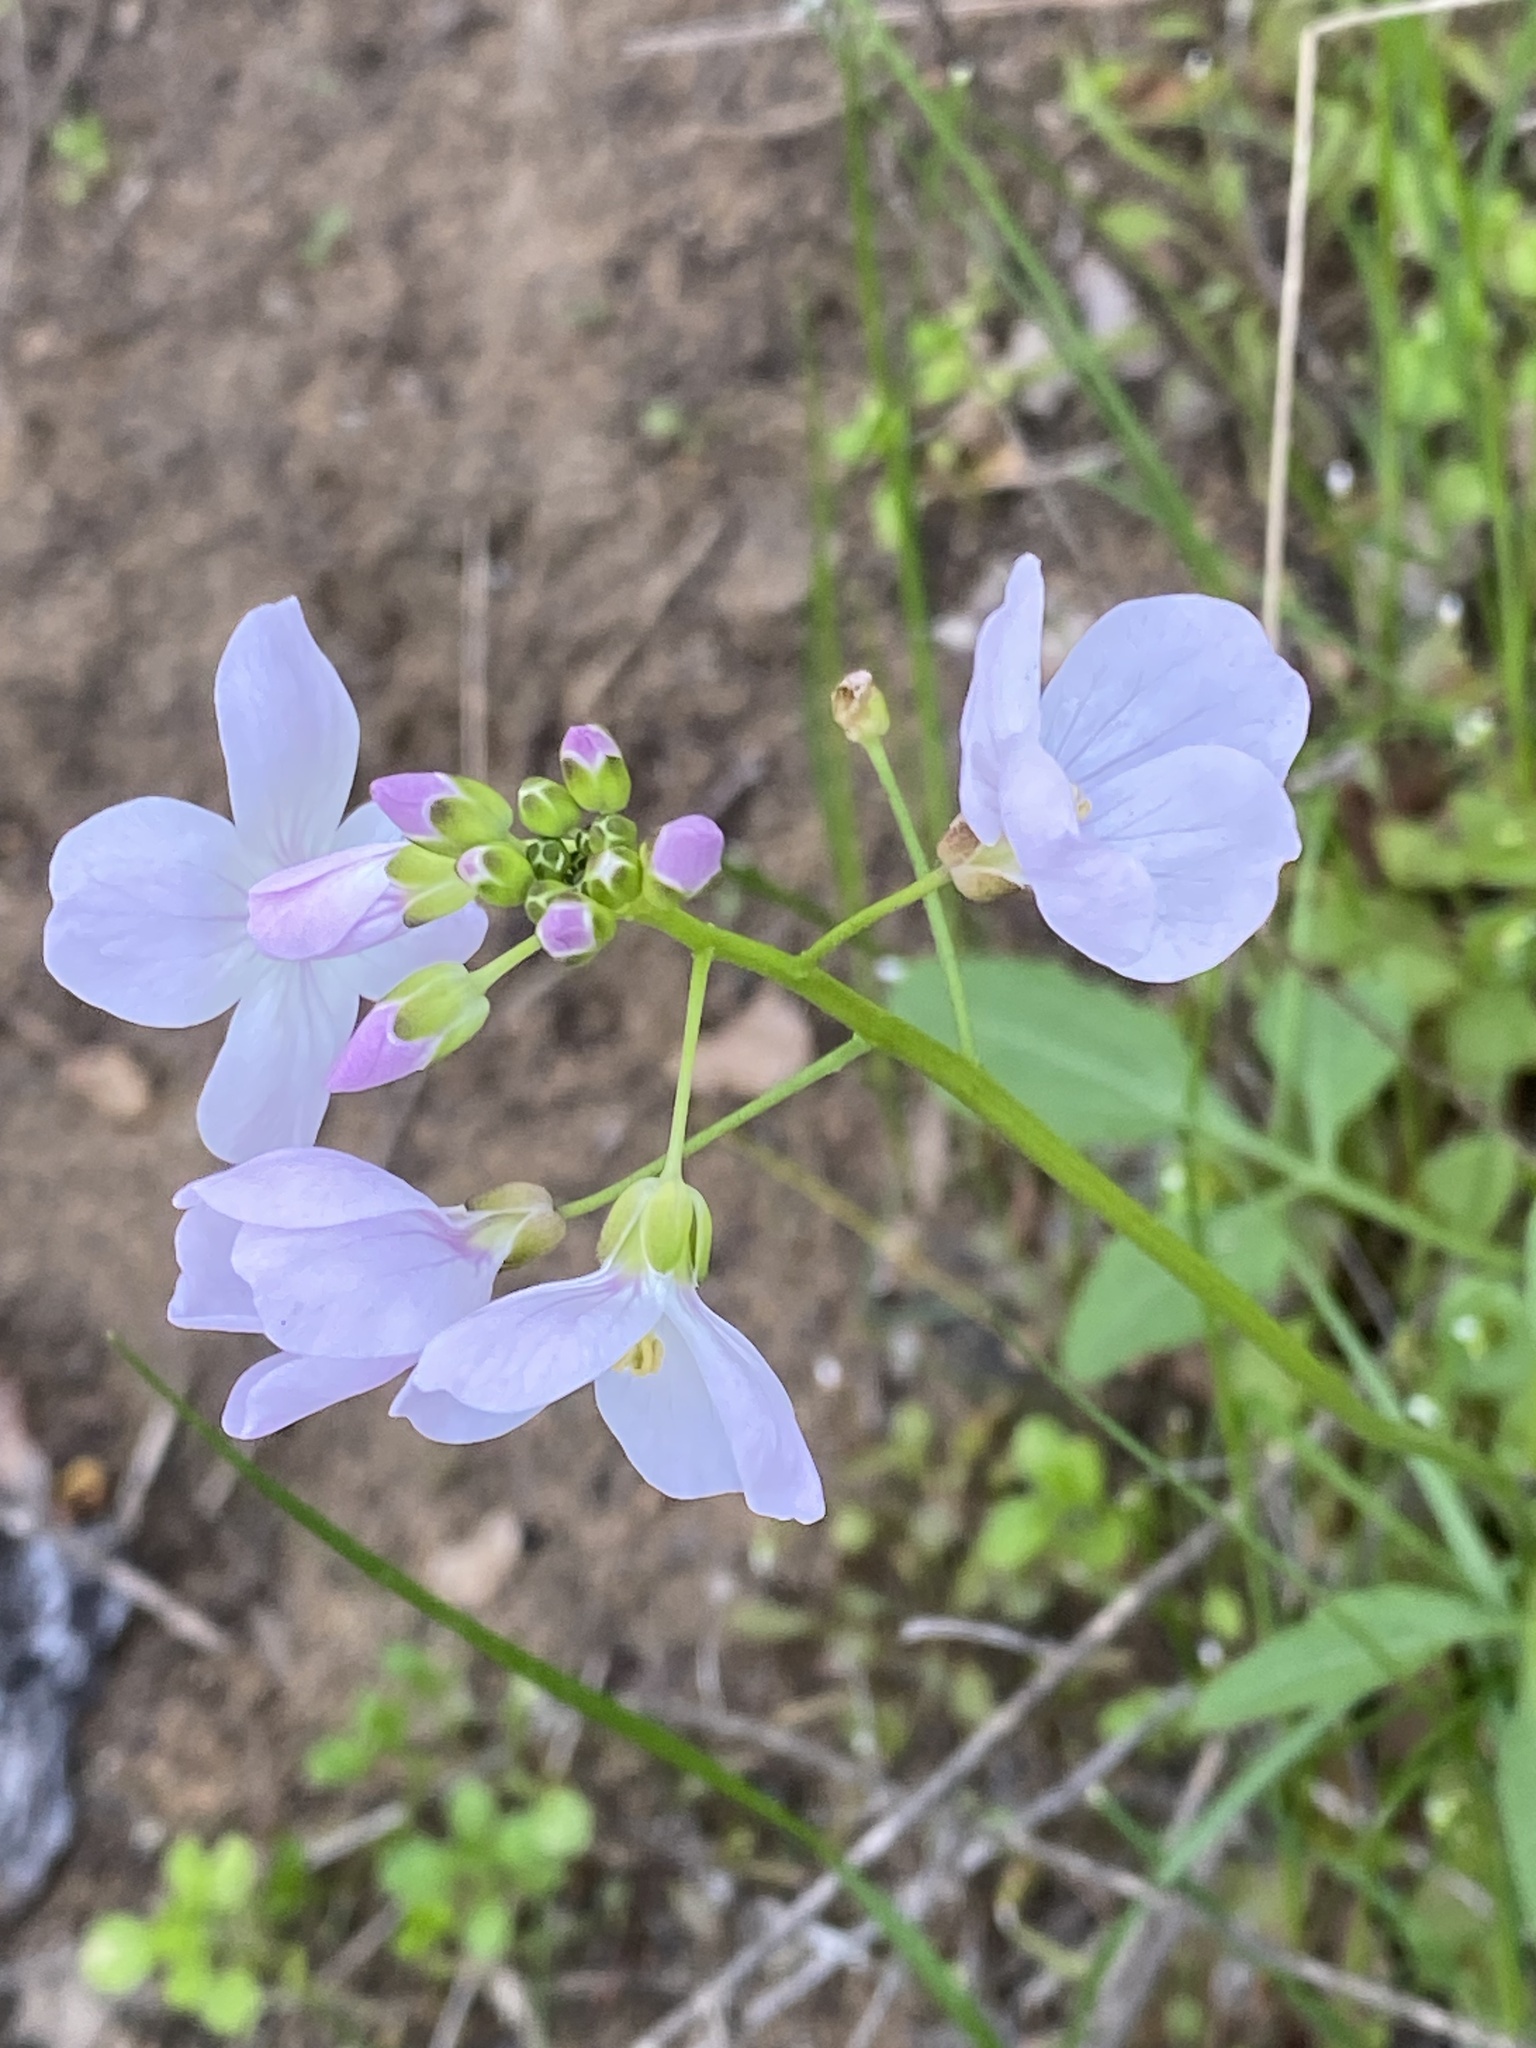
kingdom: Plantae
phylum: Tracheophyta
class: Magnoliopsida
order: Brassicales
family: Brassicaceae
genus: Cardamine
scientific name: Cardamine californica
